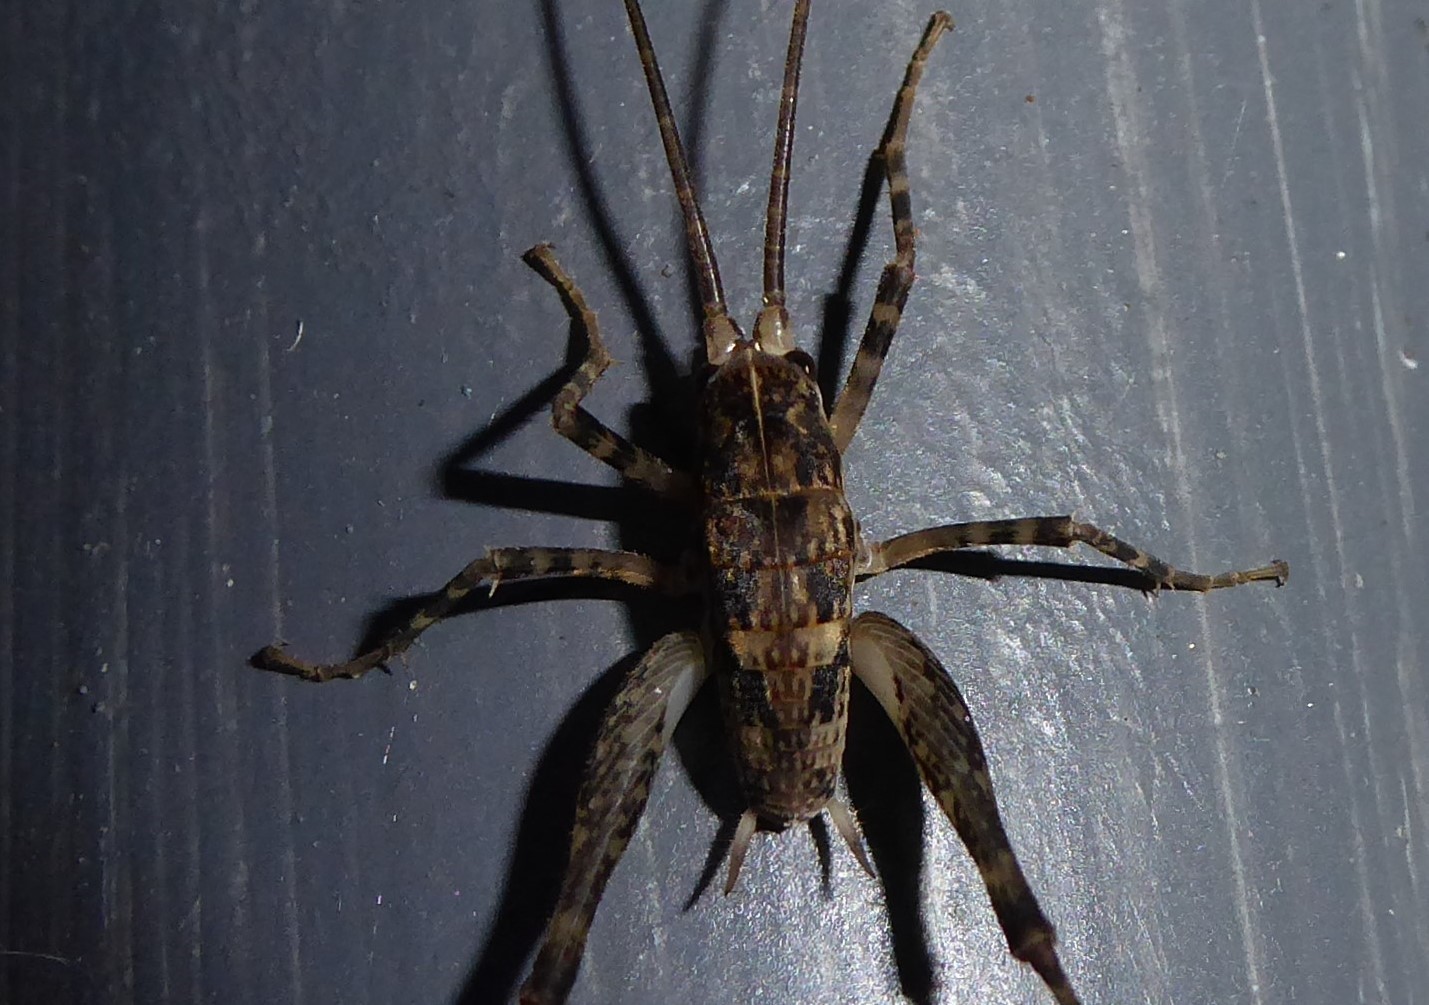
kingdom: Animalia
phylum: Arthropoda
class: Insecta
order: Orthoptera
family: Rhaphidophoridae
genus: Pleioplectron
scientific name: Pleioplectron simplex
